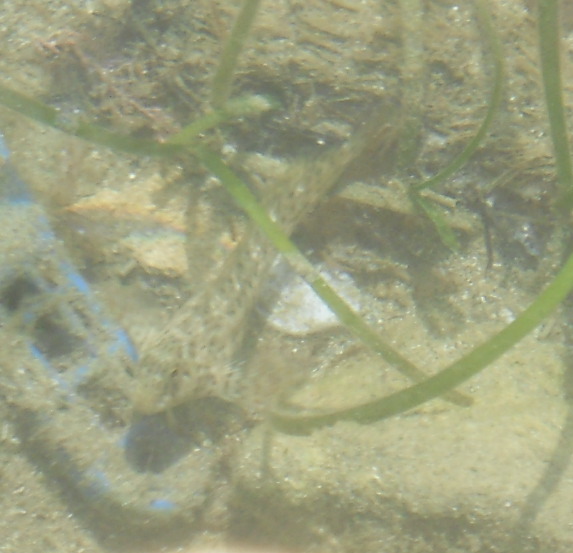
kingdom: Animalia
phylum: Chordata
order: Perciformes
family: Blenniidae
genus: Parablennius
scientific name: Parablennius sanguinolentus
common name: Black sea blenny
